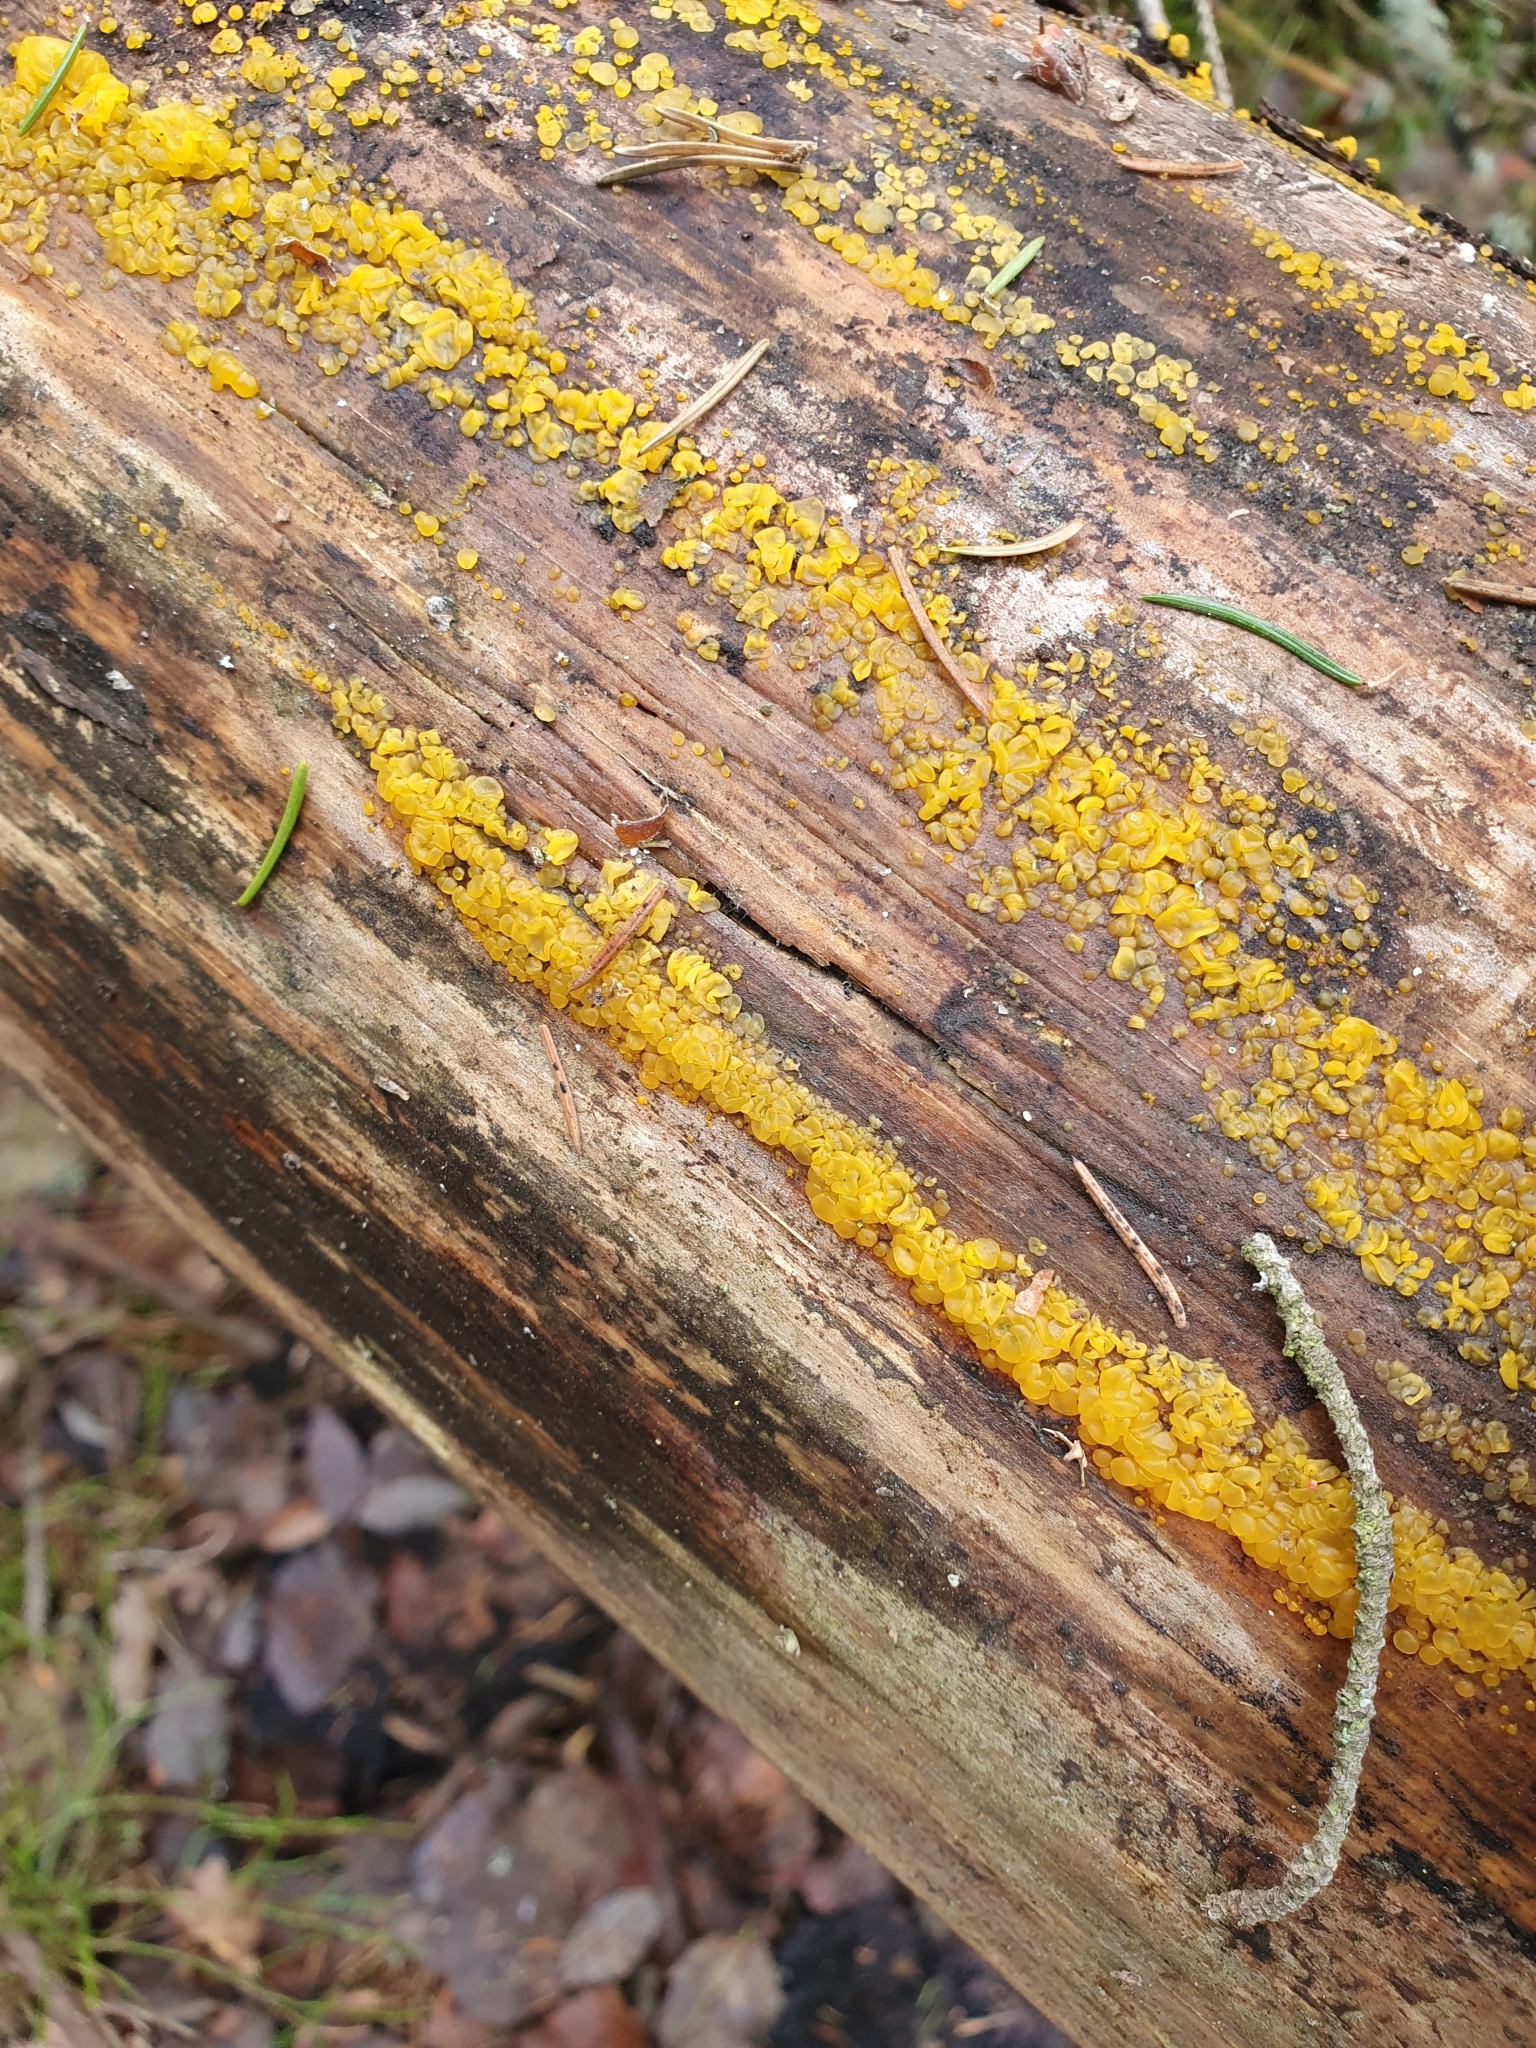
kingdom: Fungi
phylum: Basidiomycota
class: Dacrymycetes
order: Dacrymycetales
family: Dacrymycetaceae
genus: Dacrymyces
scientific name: Dacrymyces lacrymalis
